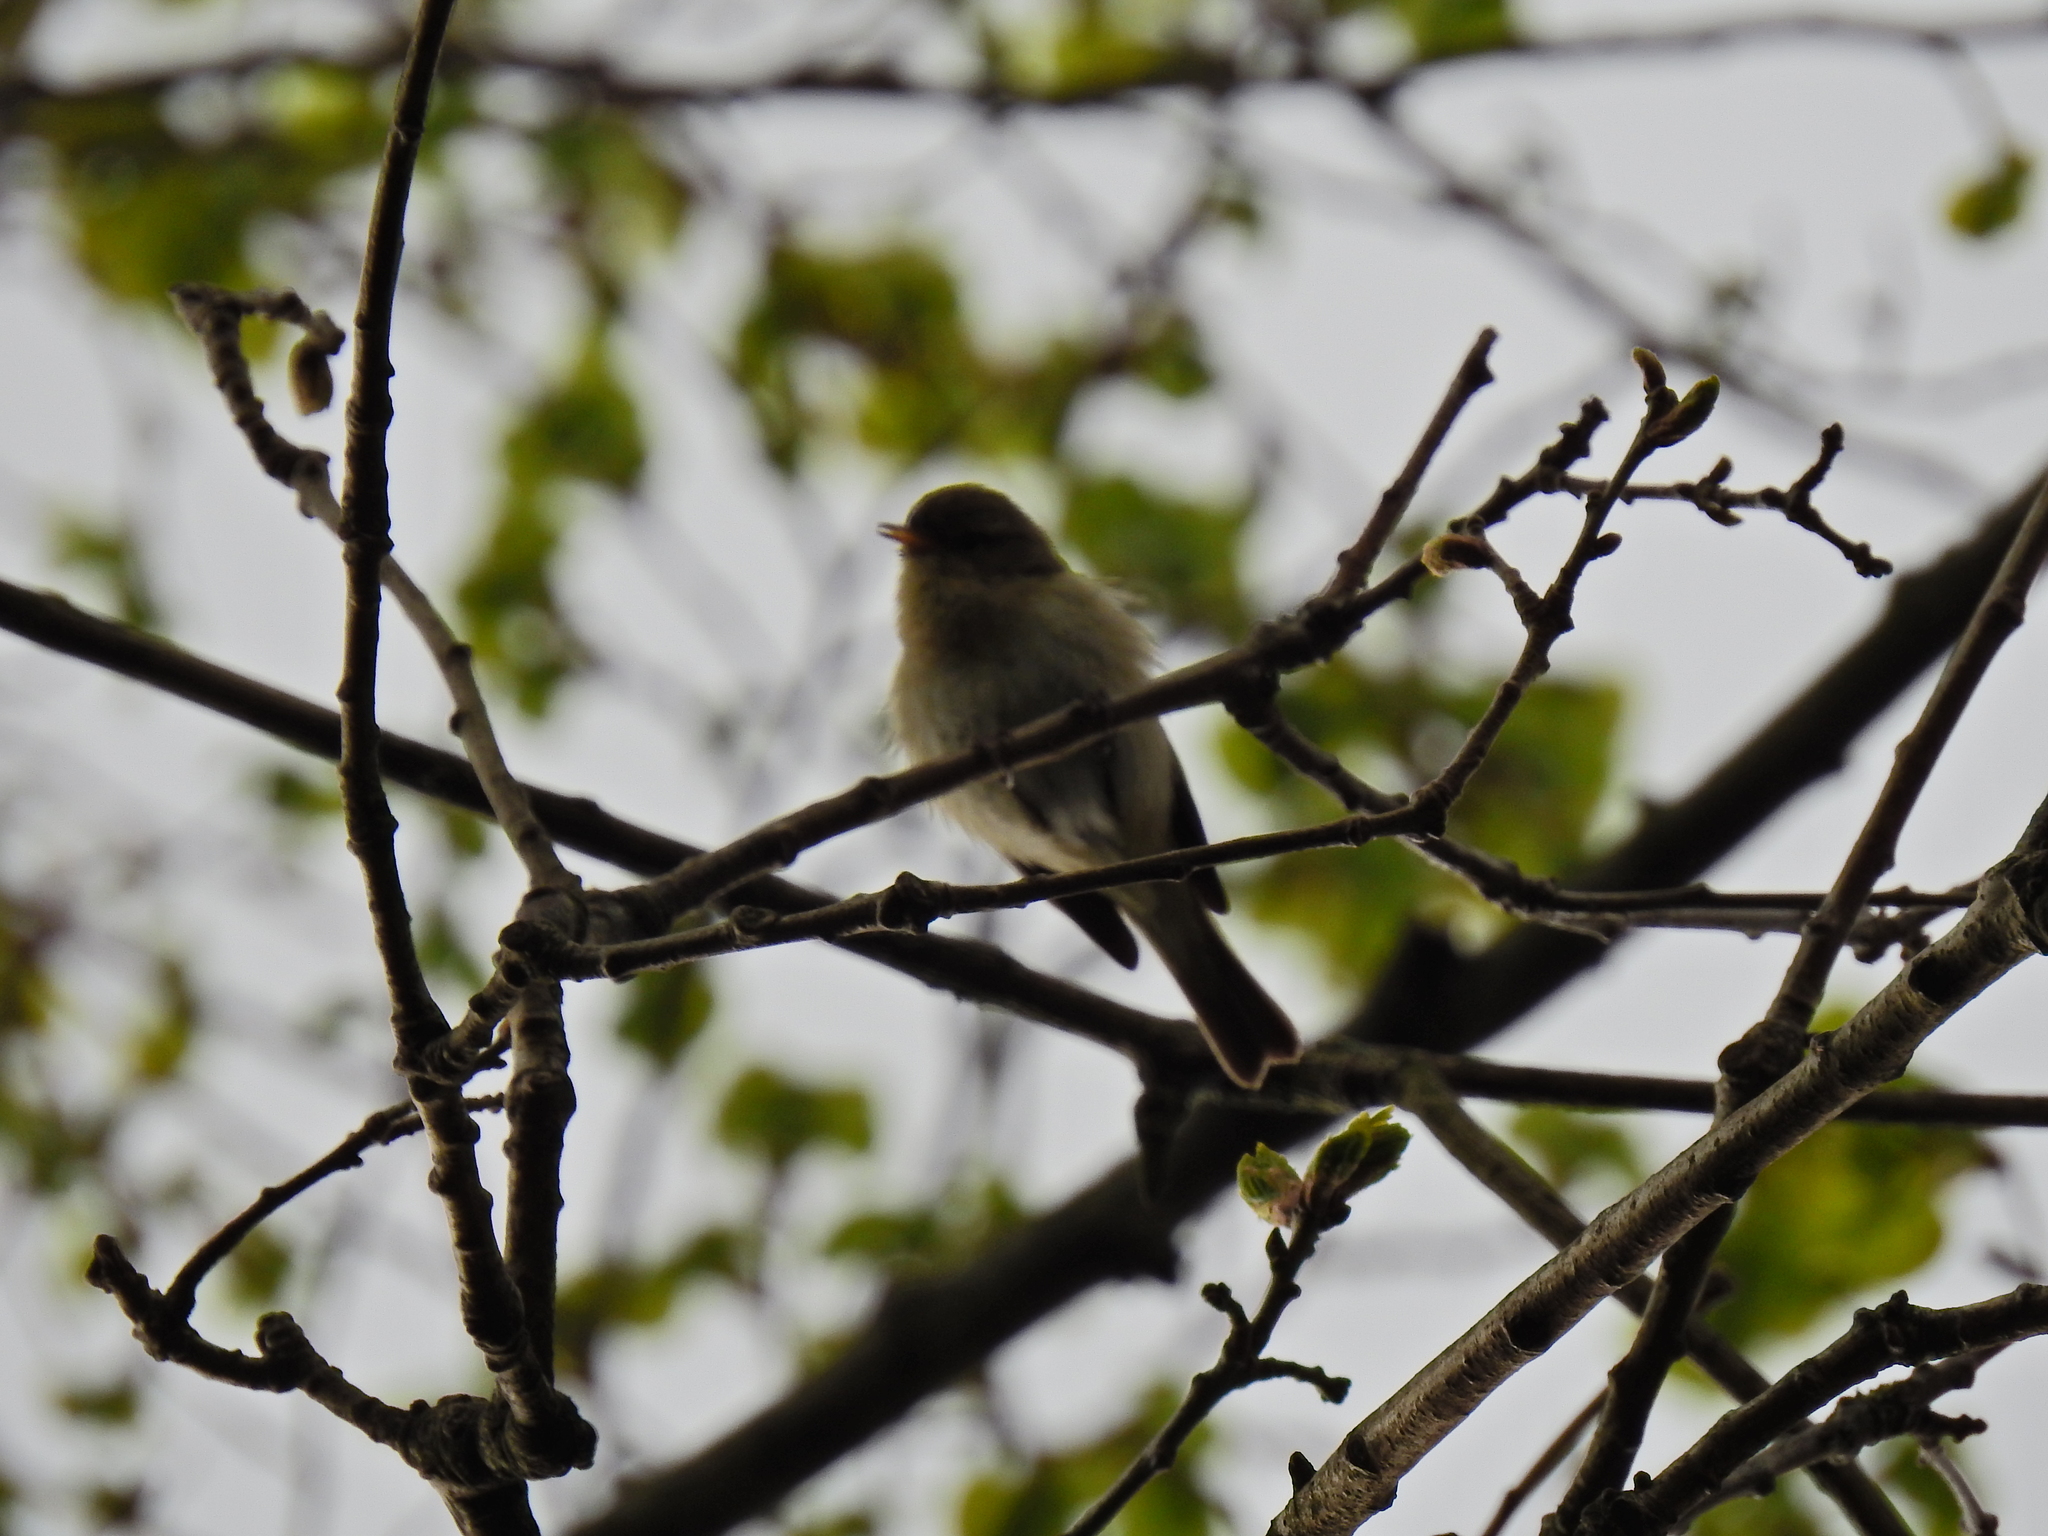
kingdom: Animalia
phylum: Chordata
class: Aves
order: Passeriformes
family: Phylloscopidae
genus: Phylloscopus
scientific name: Phylloscopus collybita
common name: Common chiffchaff
